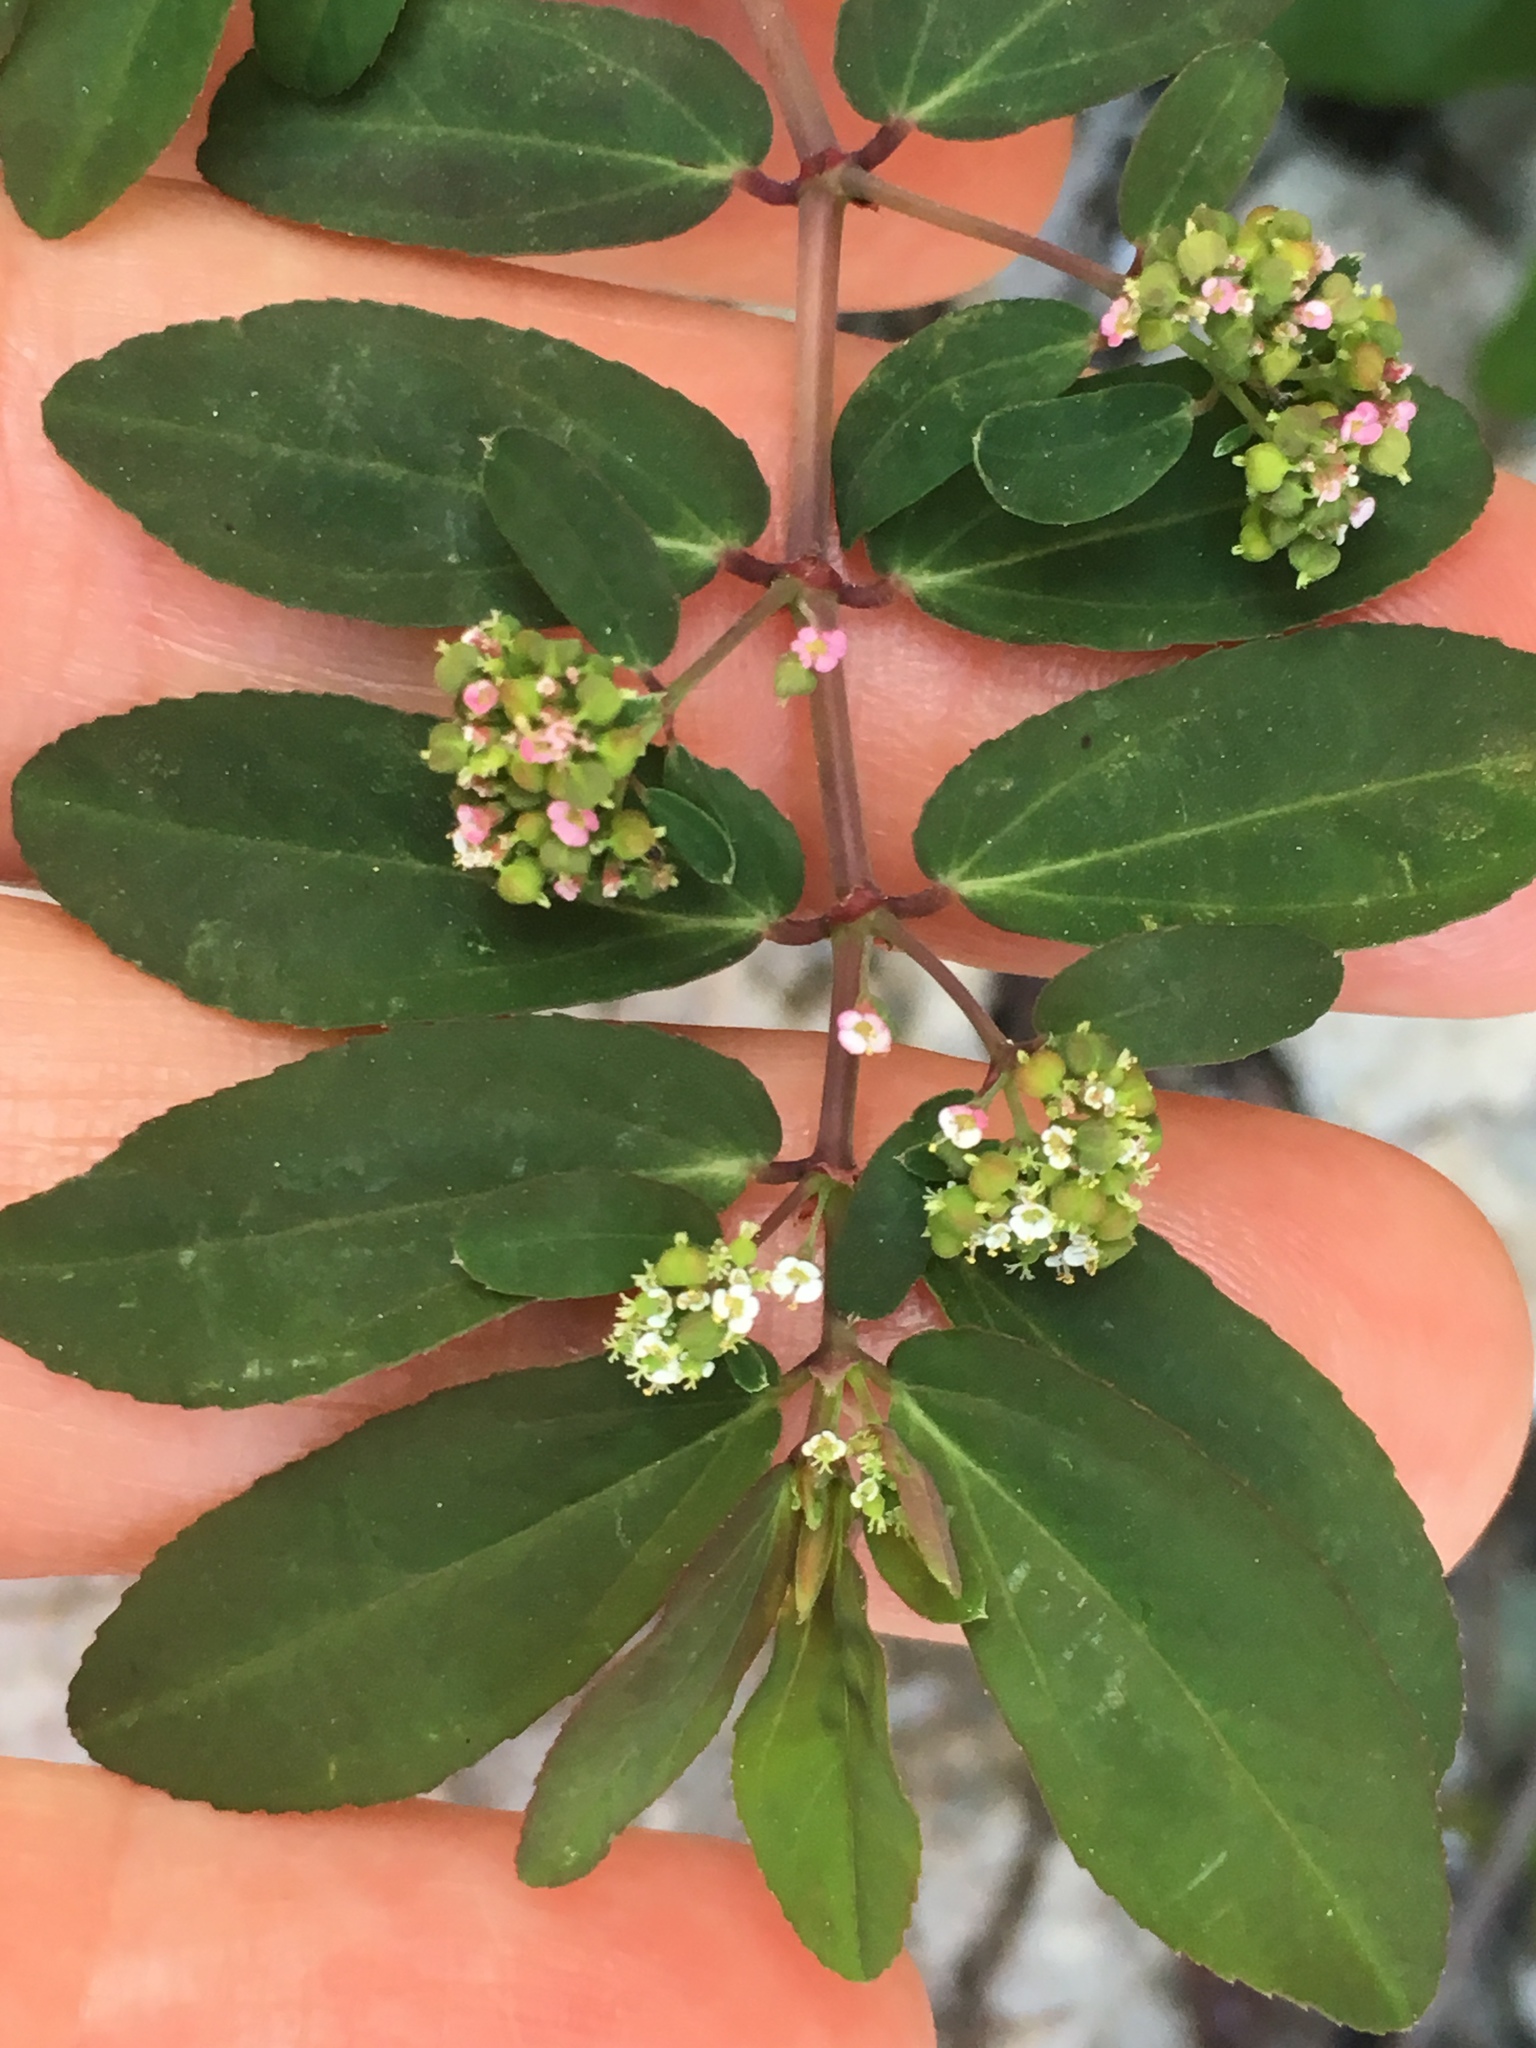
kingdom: Plantae
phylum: Tracheophyta
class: Magnoliopsida
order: Malpighiales
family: Euphorbiaceae
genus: Euphorbia
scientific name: Euphorbia hypericifolia
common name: Graceful sandmat
